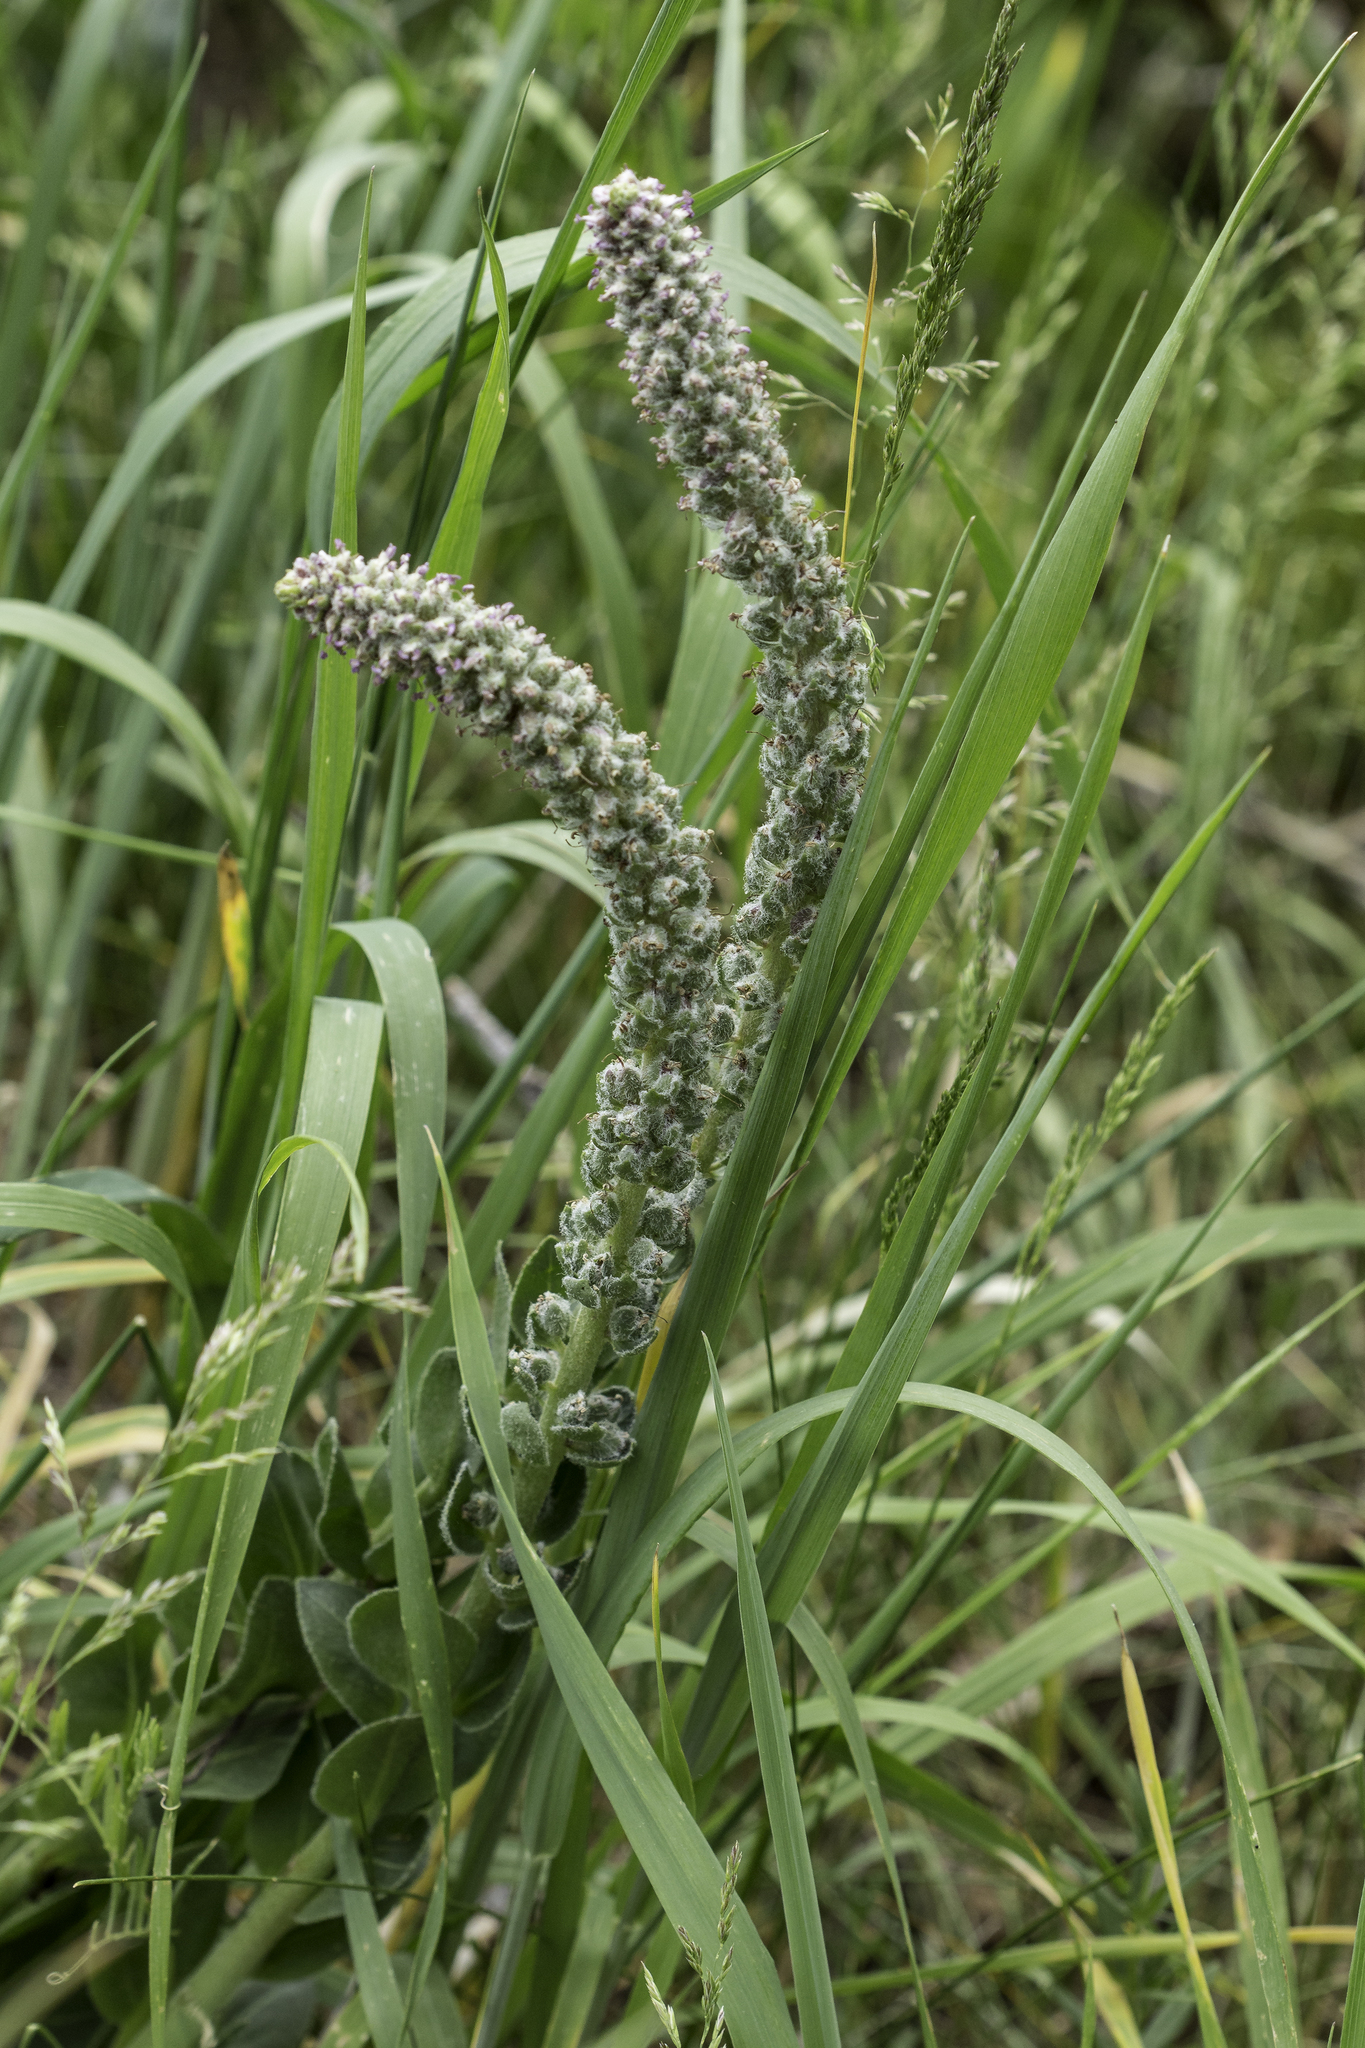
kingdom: Plantae
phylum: Tracheophyta
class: Magnoliopsida
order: Lamiales
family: Plantaginaceae
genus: Veronica
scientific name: Veronica plantaginea
